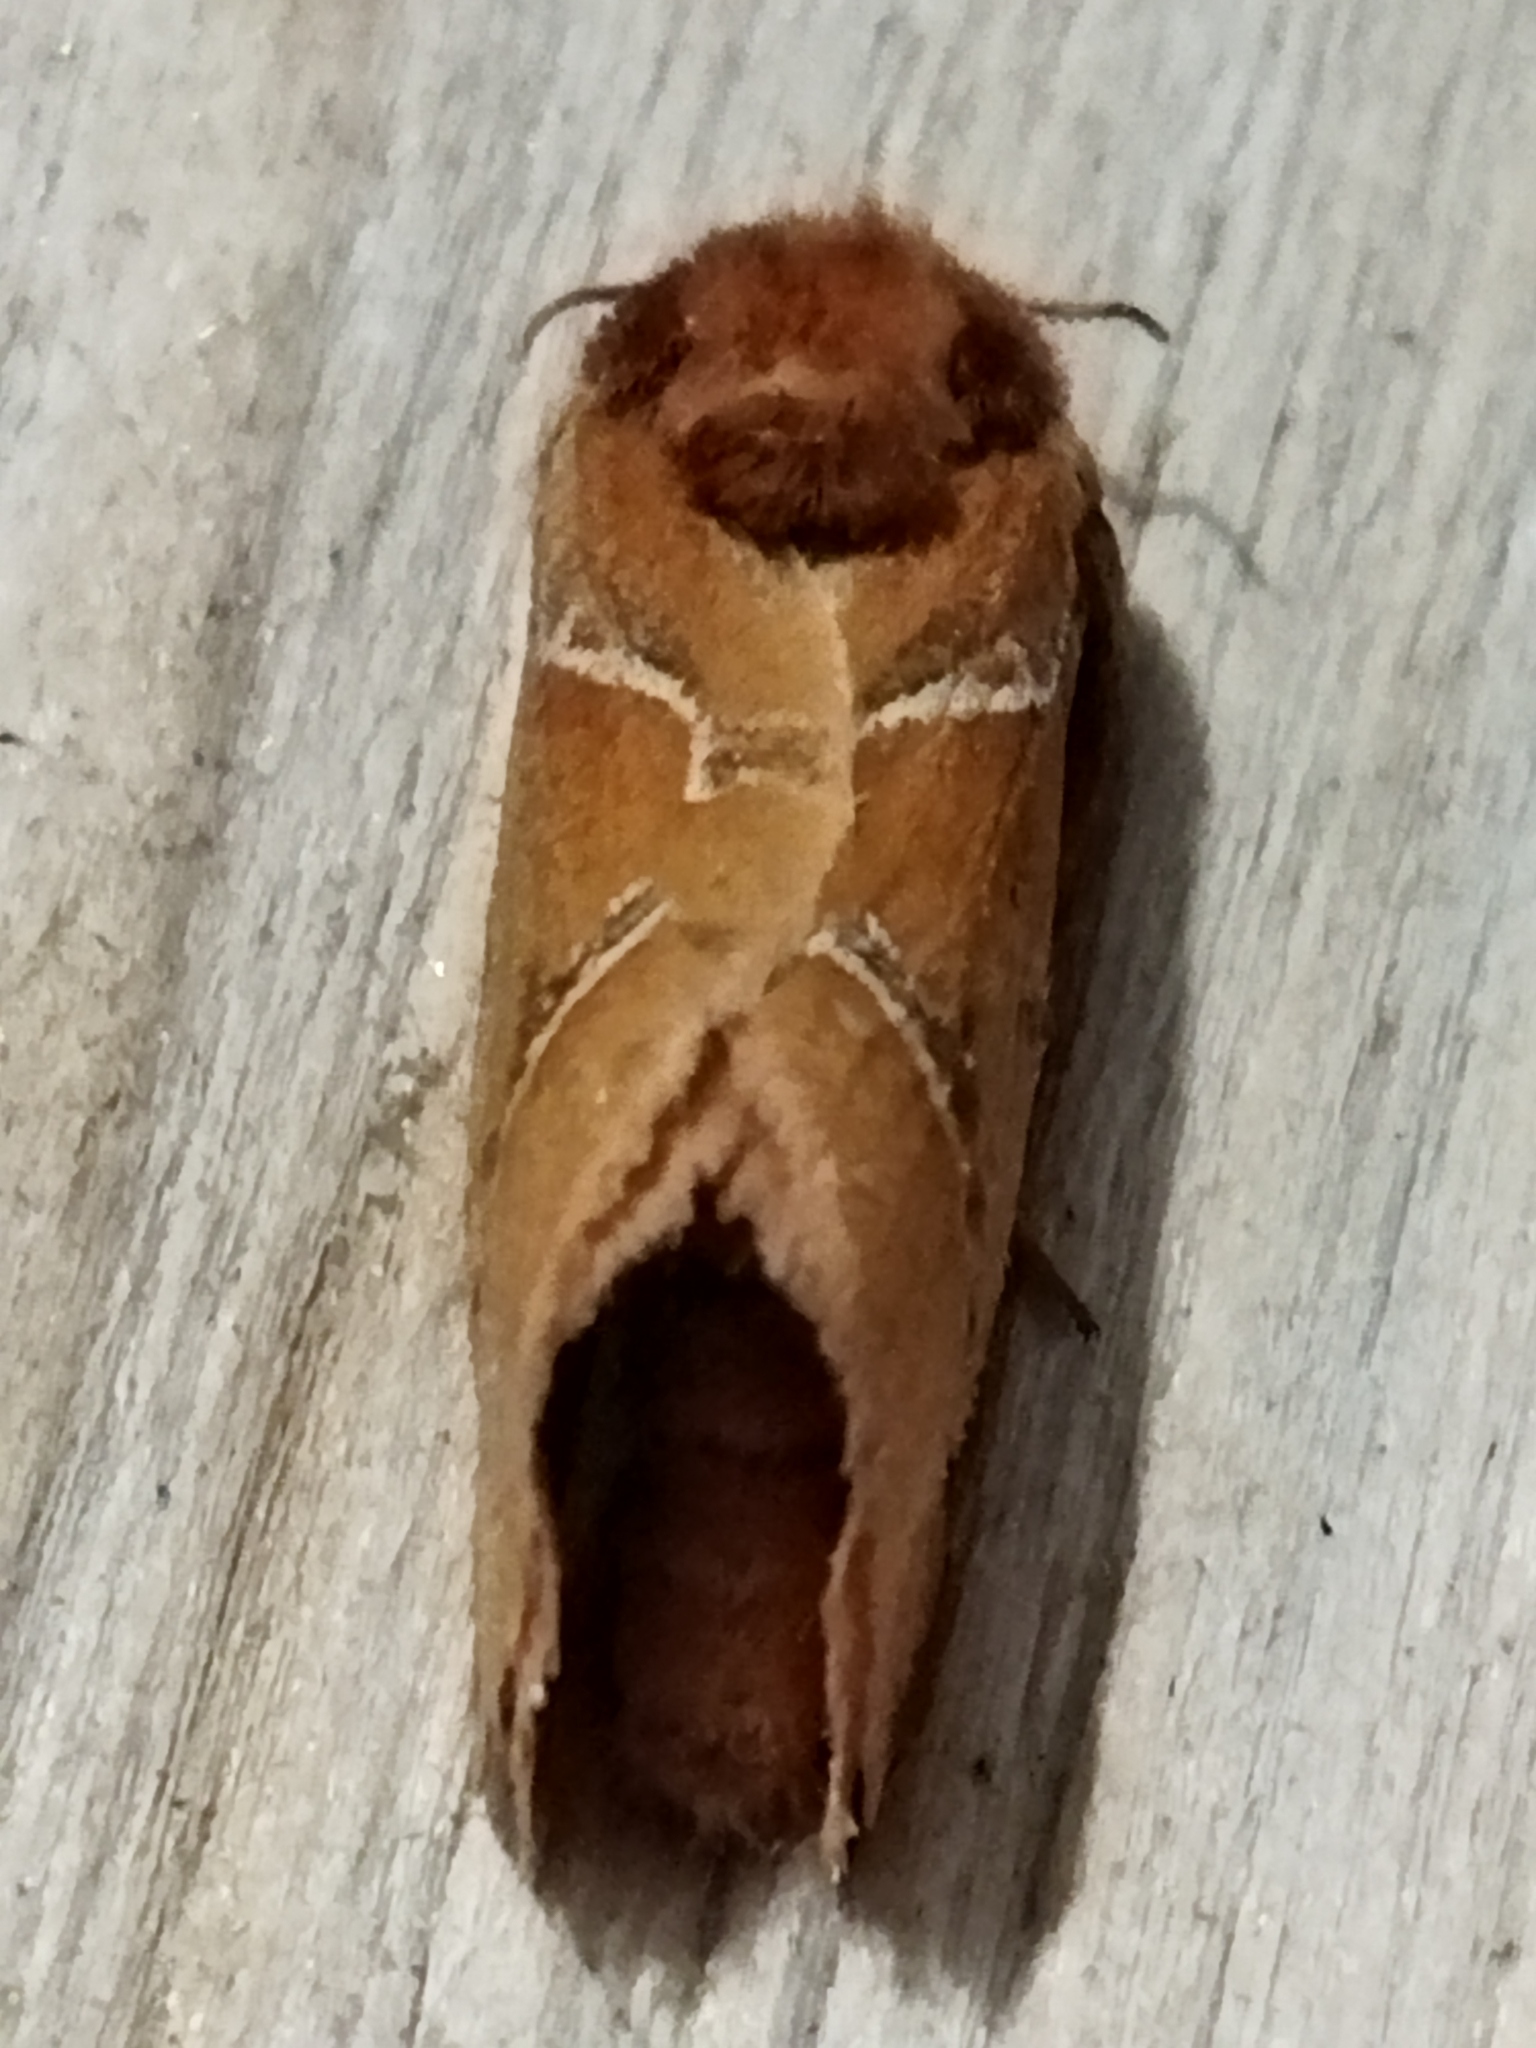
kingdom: Animalia
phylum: Arthropoda
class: Insecta
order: Lepidoptera
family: Hepialidae
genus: Triodia
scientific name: Triodia sylvina
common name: Orange swift
